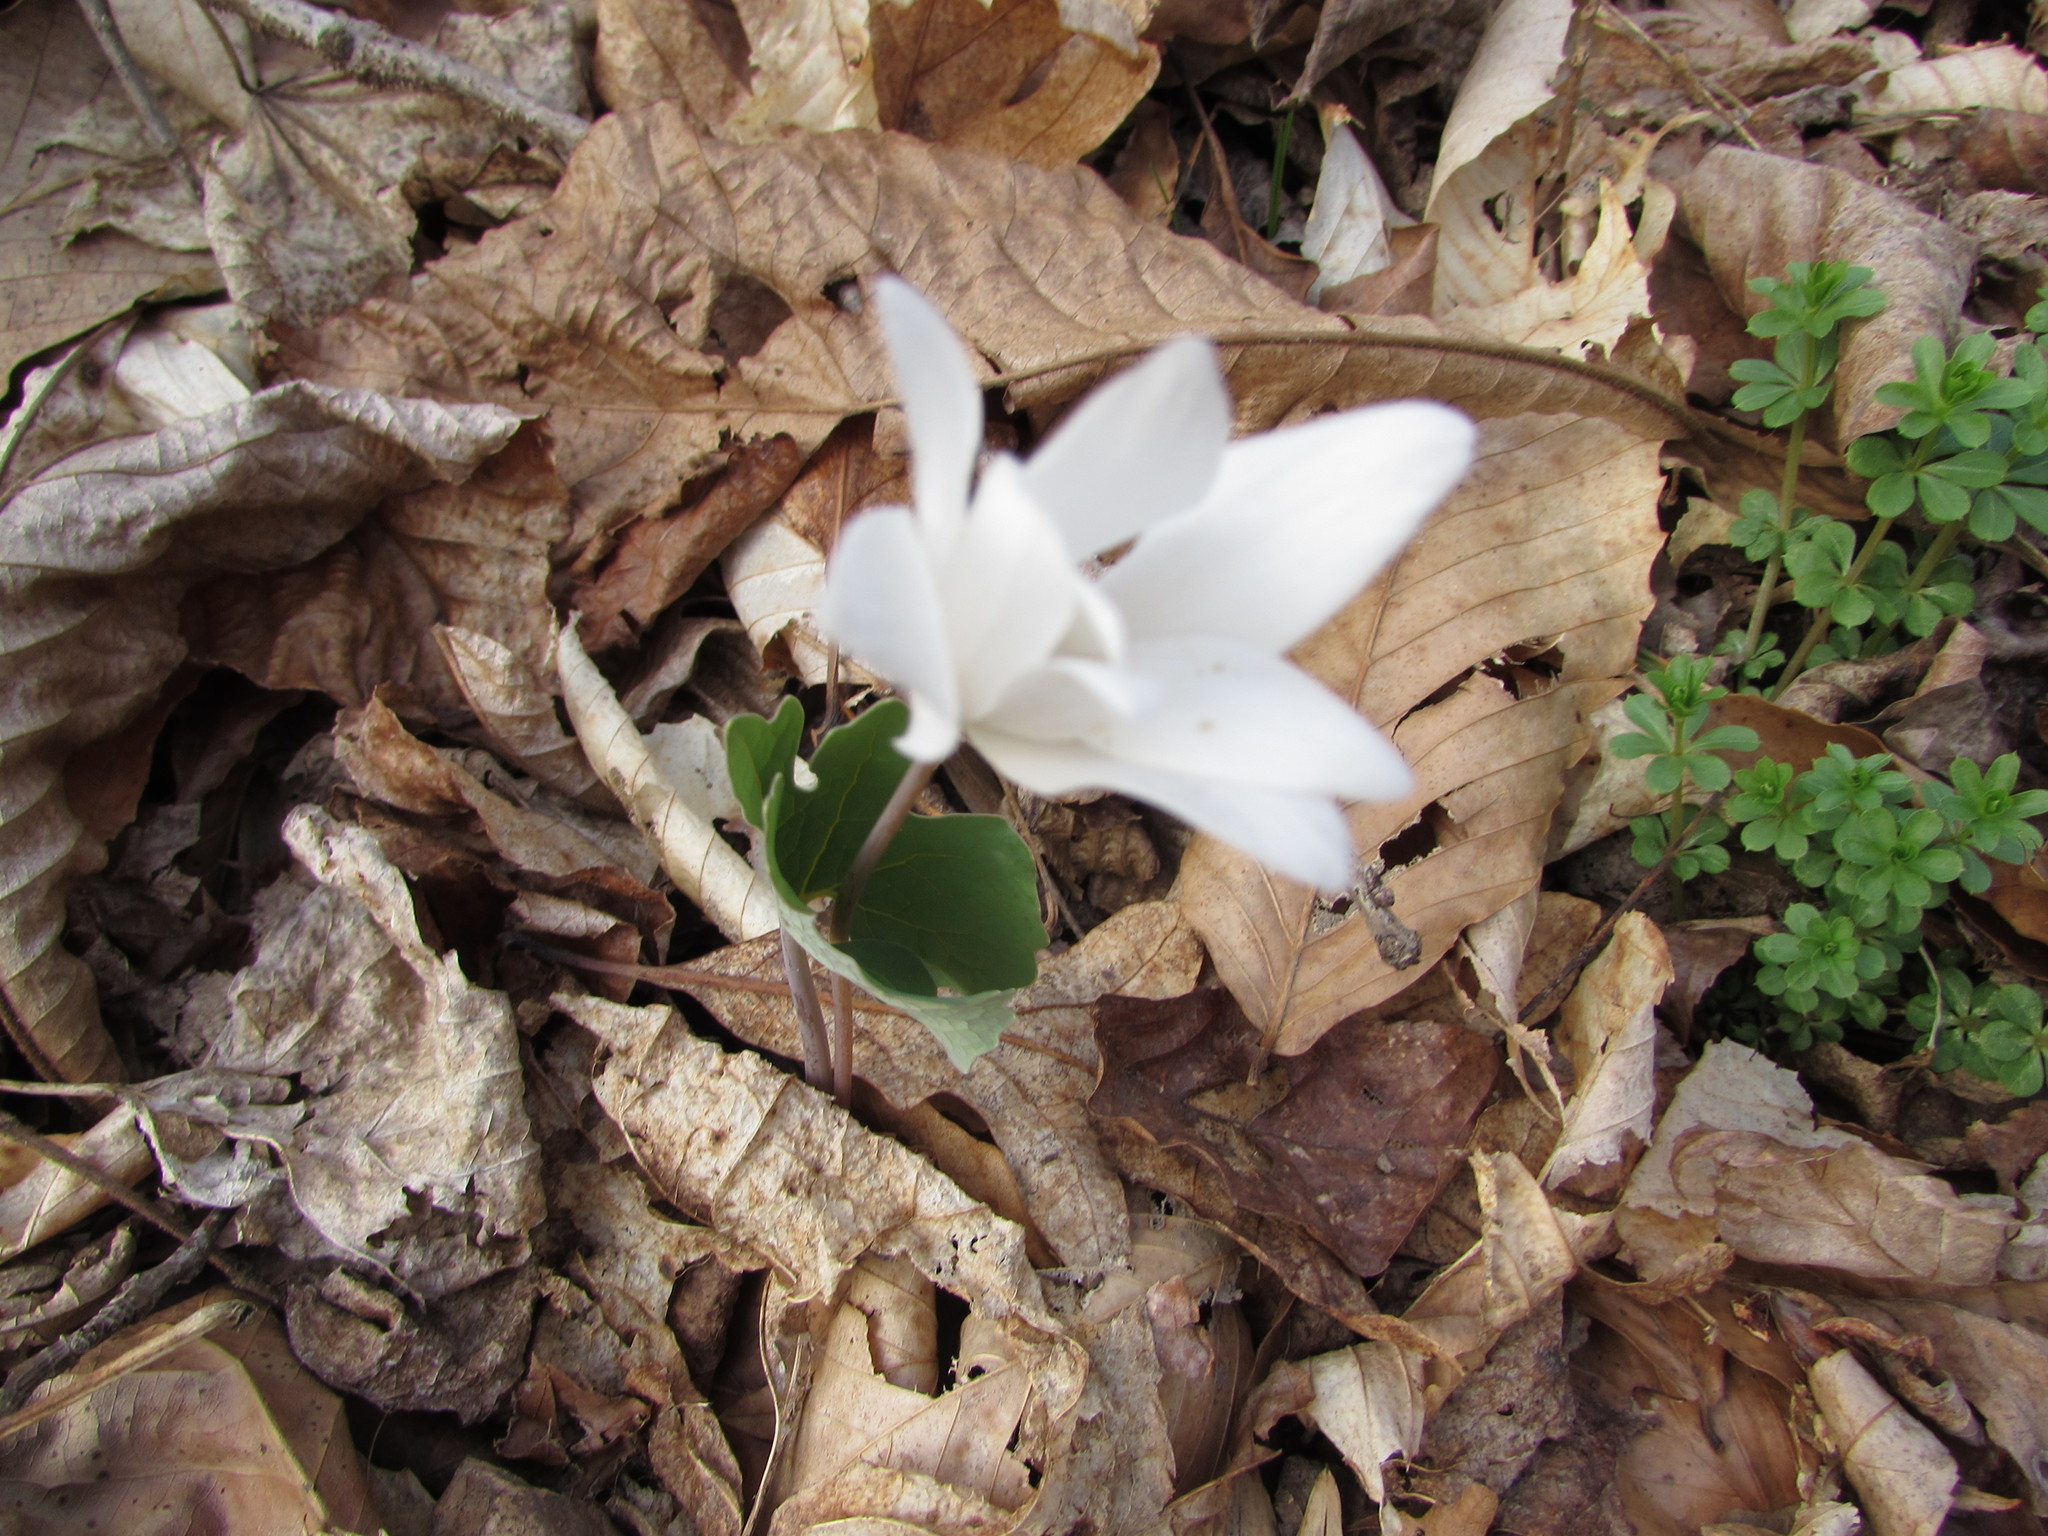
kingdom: Plantae
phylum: Tracheophyta
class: Magnoliopsida
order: Ranunculales
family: Papaveraceae
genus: Sanguinaria
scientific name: Sanguinaria canadensis
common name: Bloodroot
